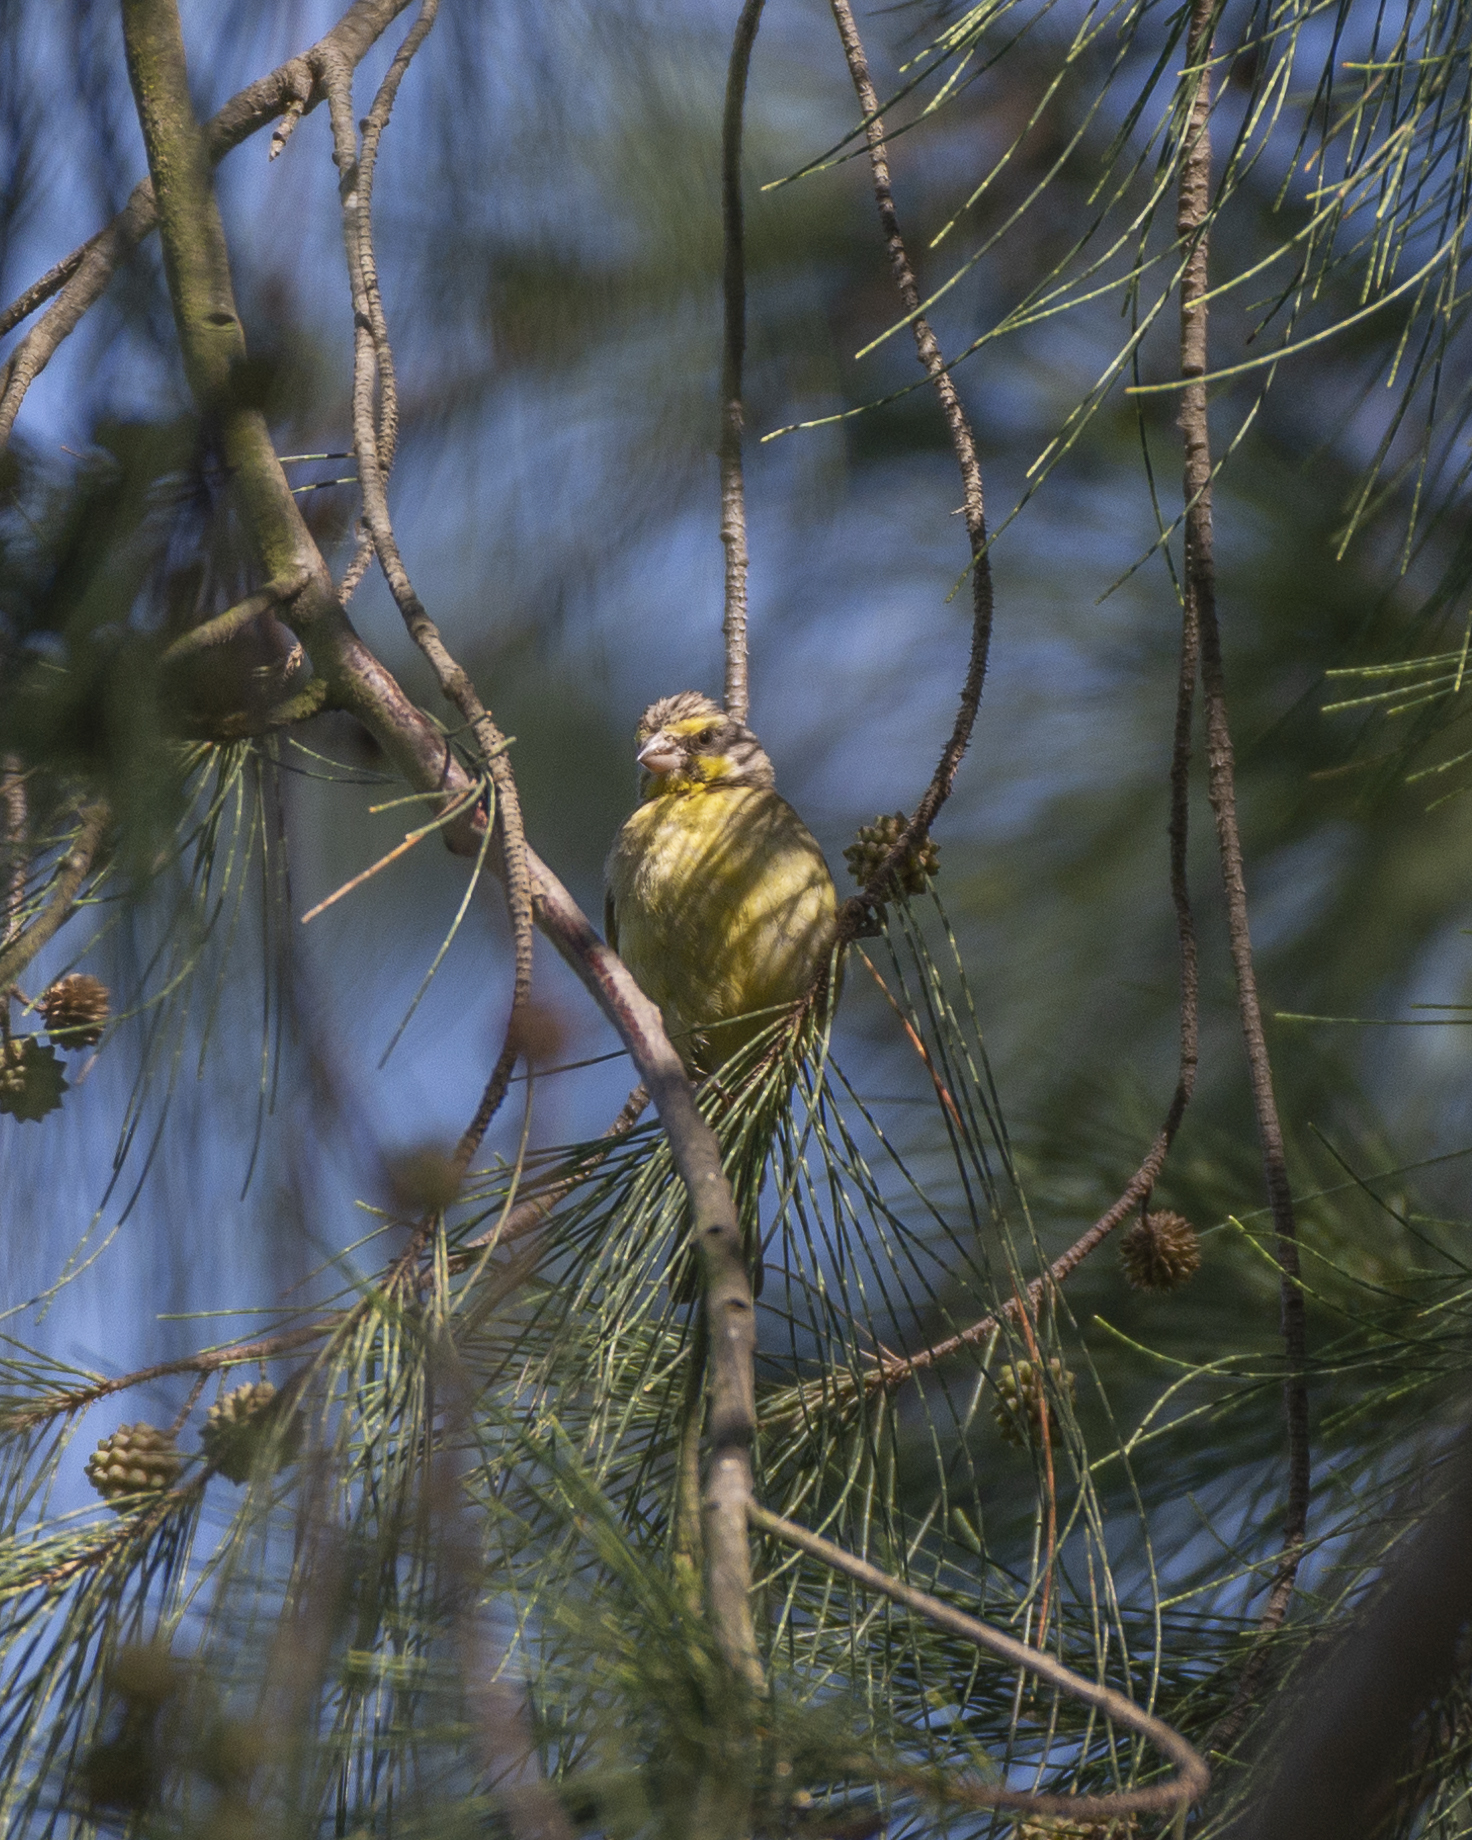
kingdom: Animalia
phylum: Chordata
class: Aves
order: Passeriformes
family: Fringillidae
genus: Crithagra
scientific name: Crithagra mozambica
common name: Yellow-fronted canary
